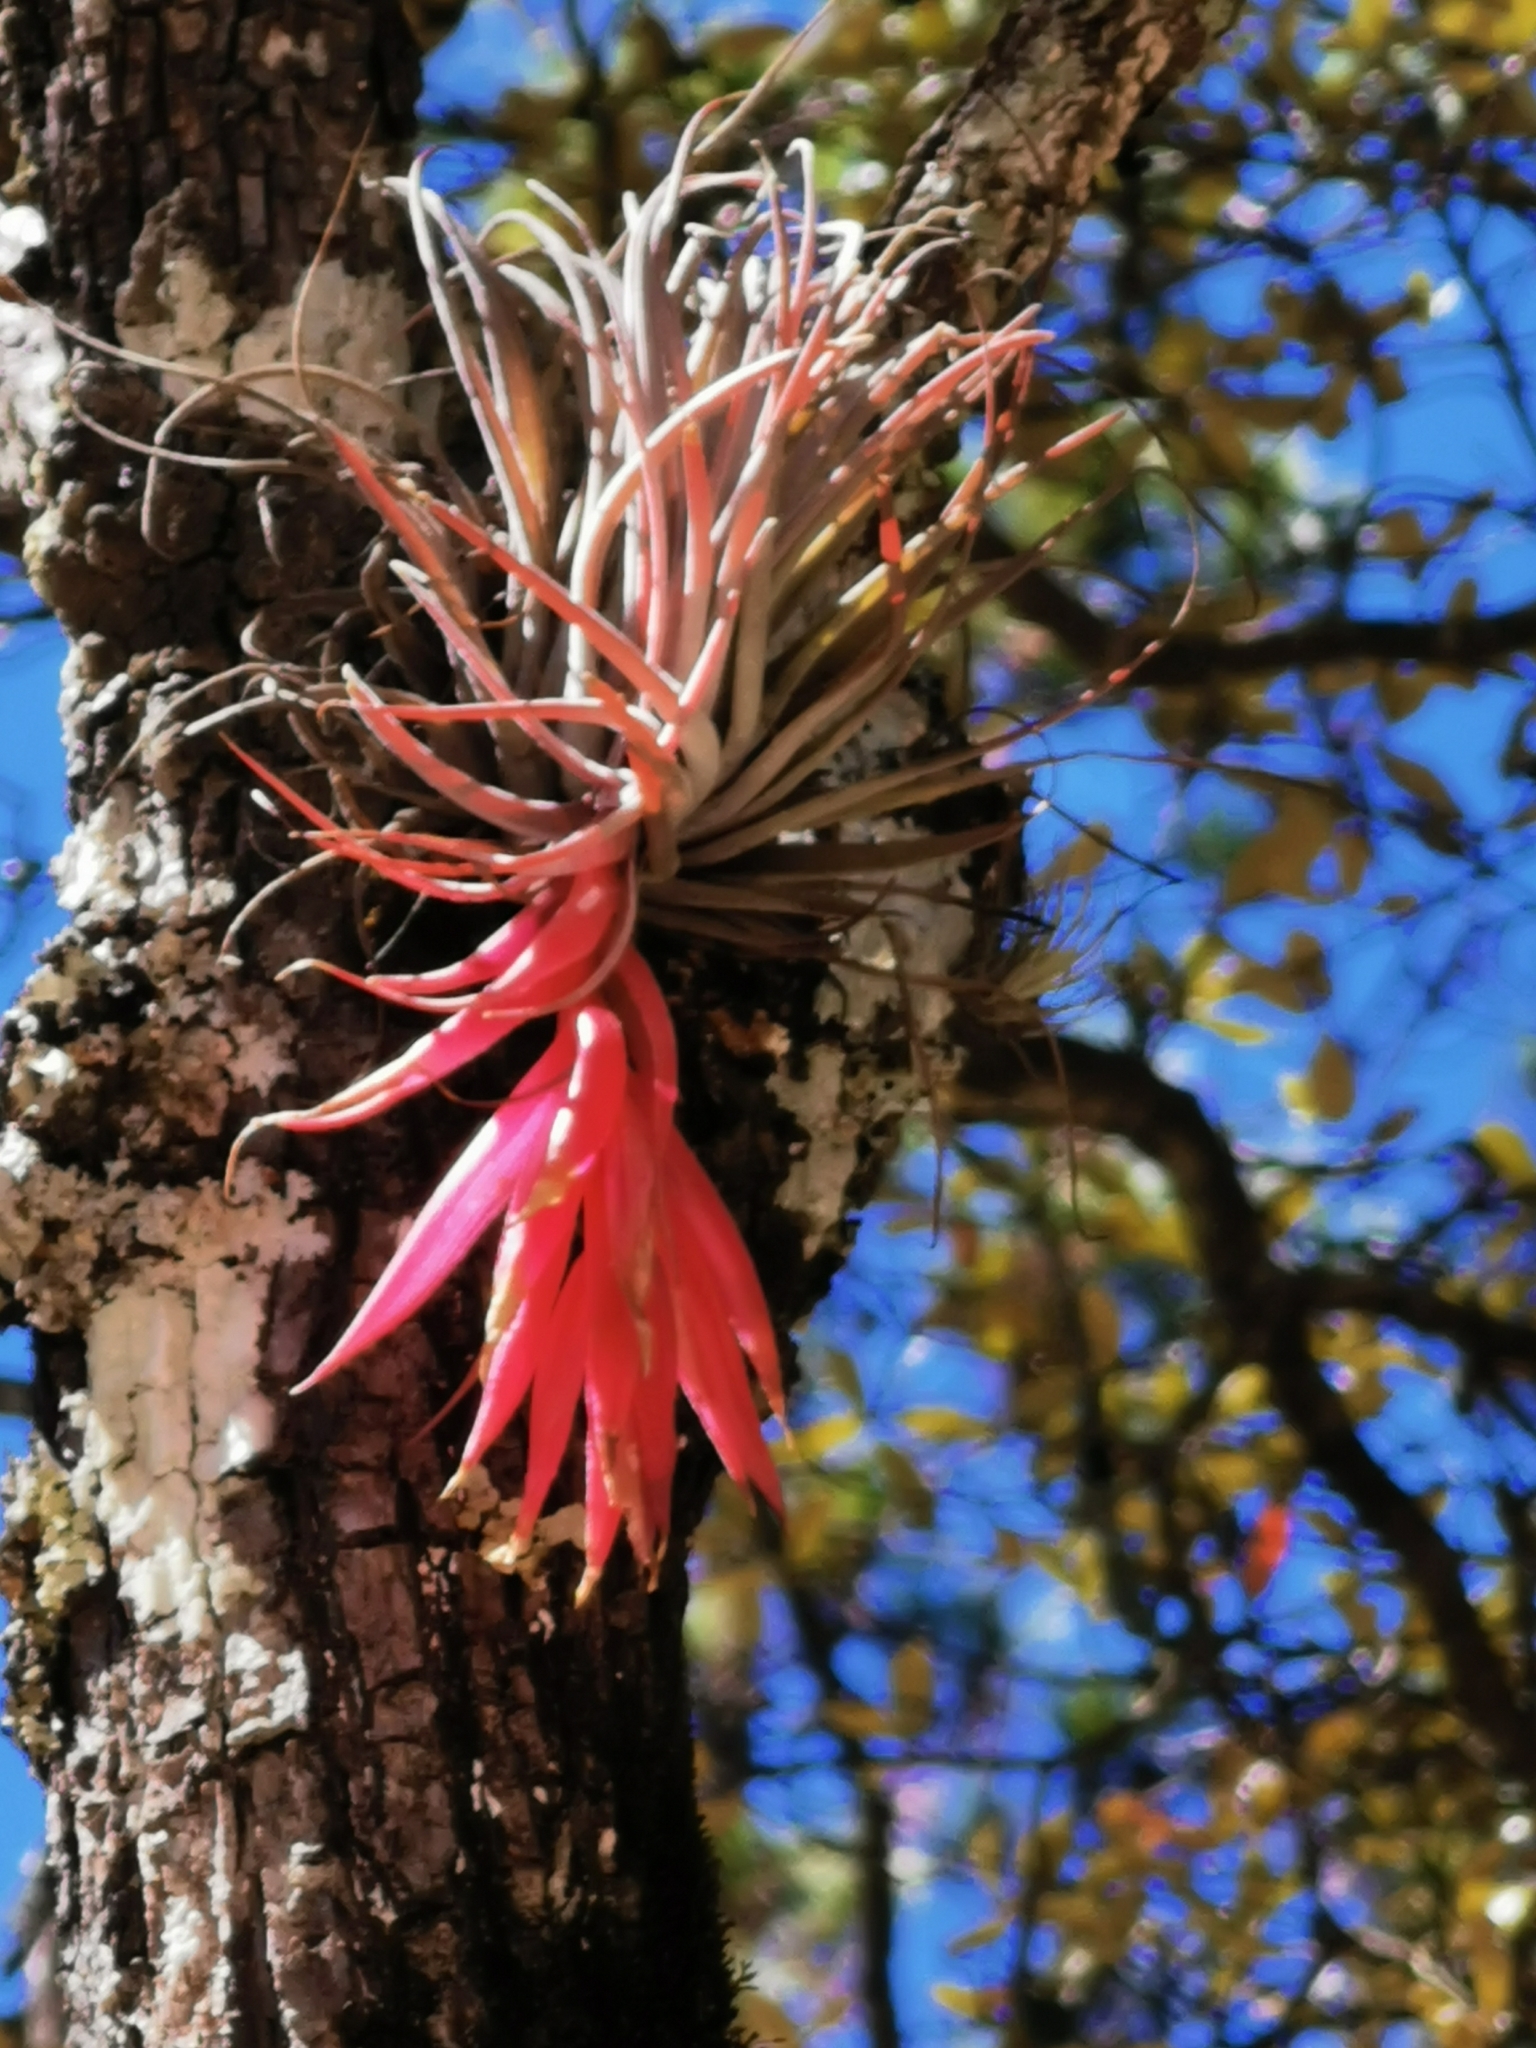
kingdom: Plantae
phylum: Tracheophyta
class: Liliopsida
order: Poales
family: Bromeliaceae
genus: Tillandsia
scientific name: Tillandsia macdougallii
